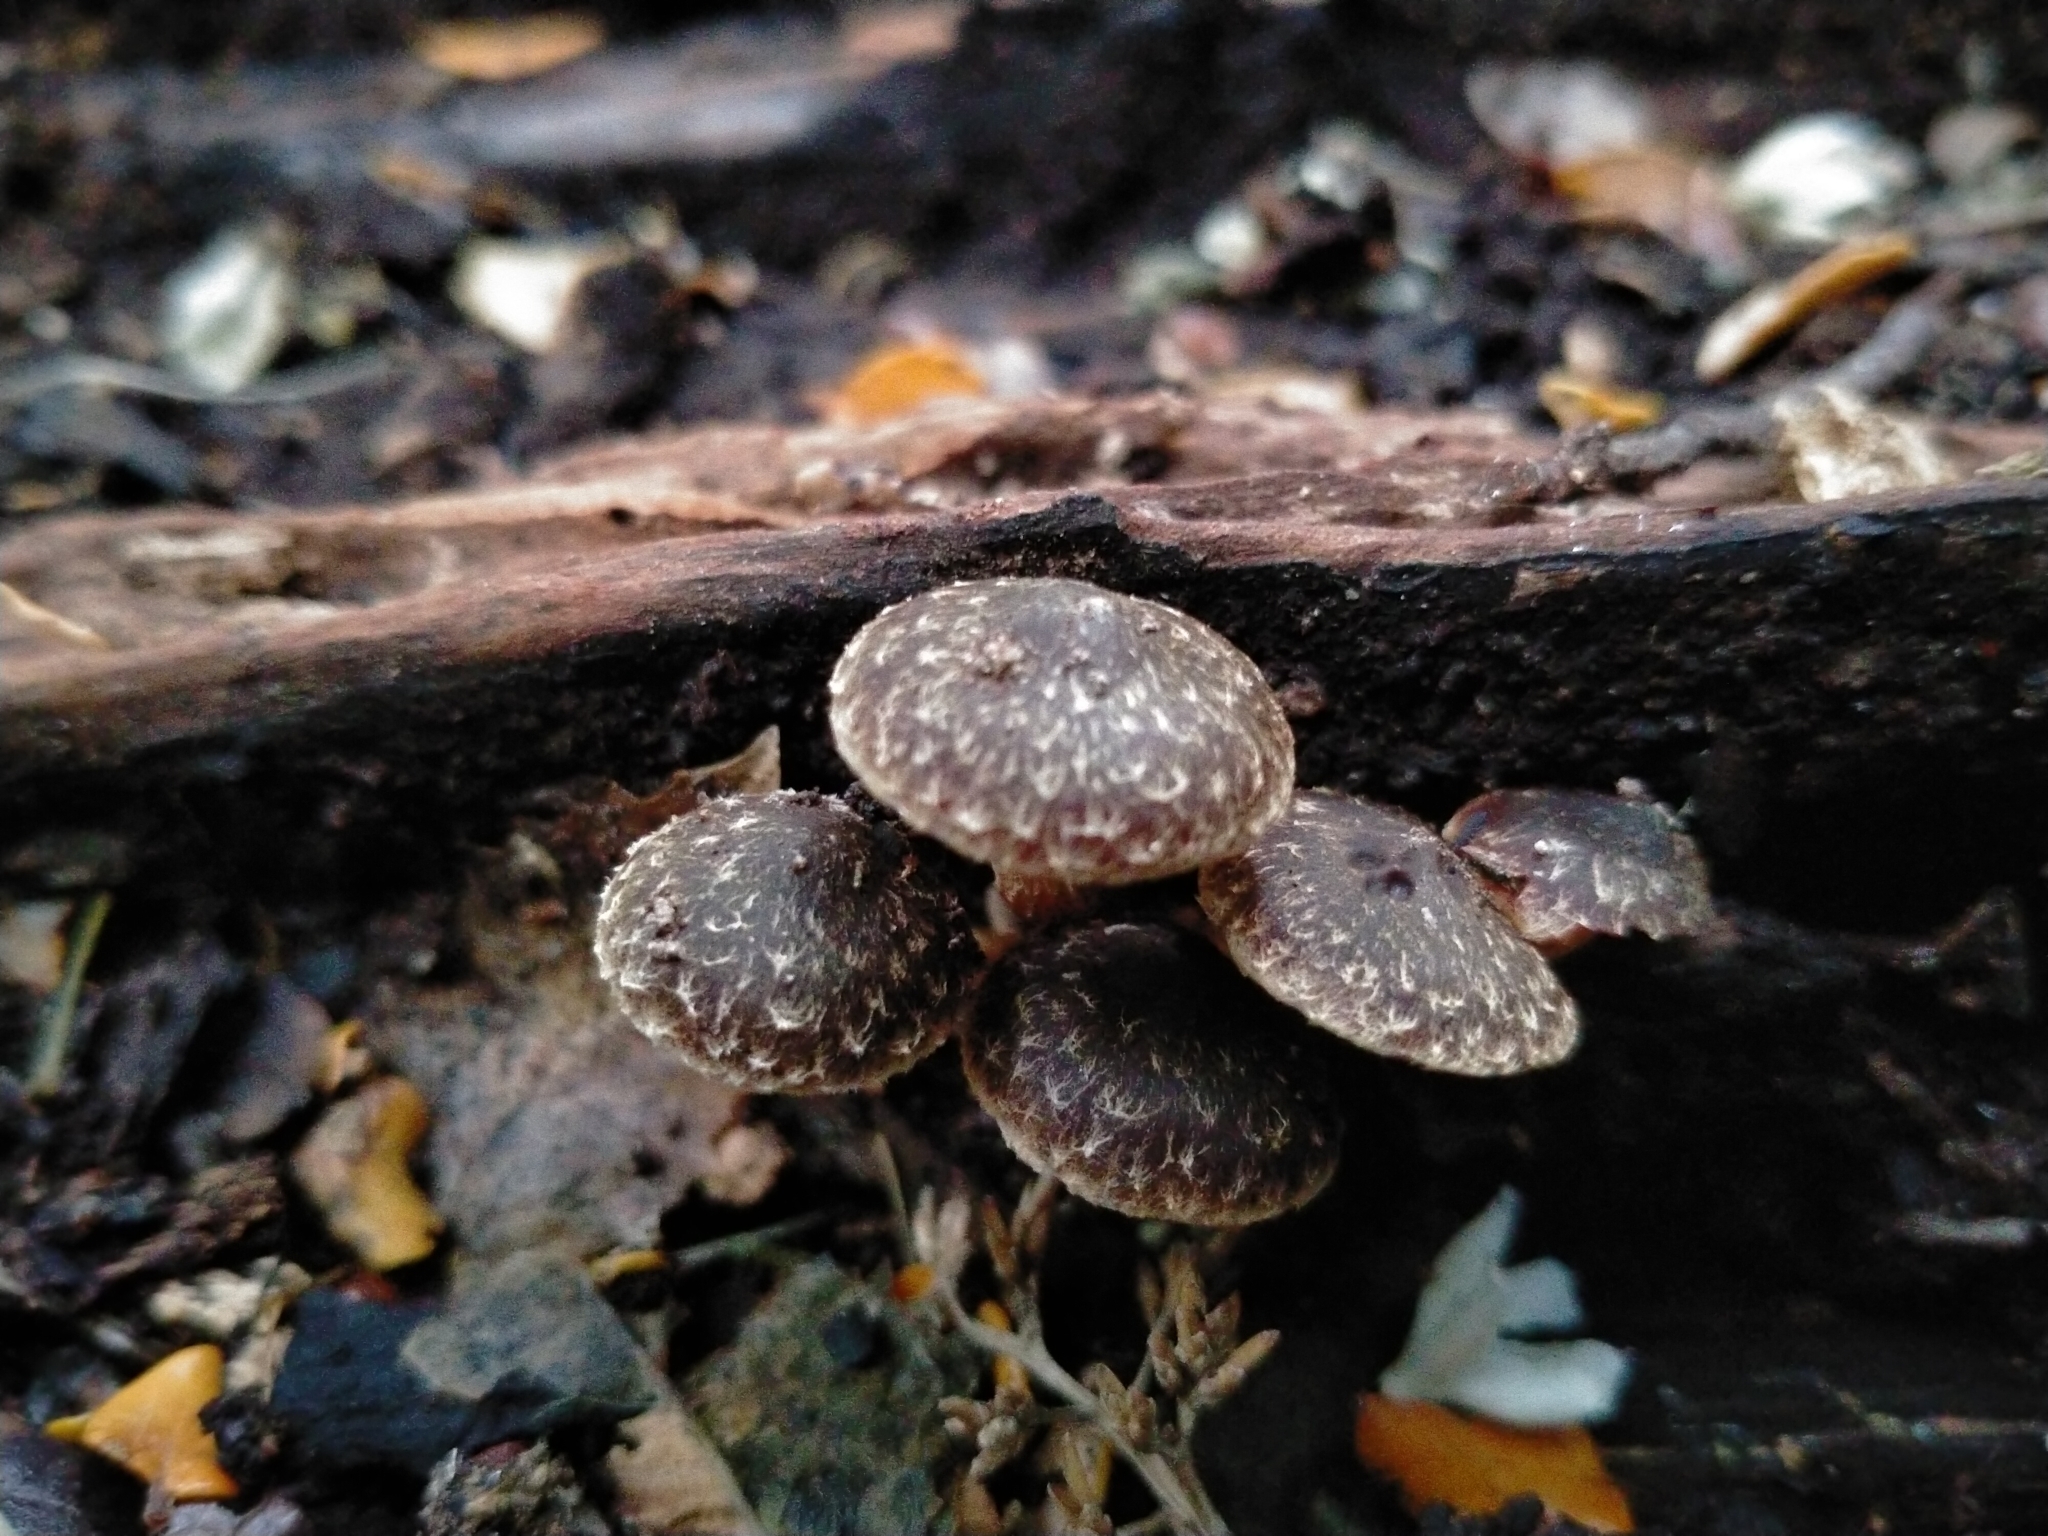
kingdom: Fungi
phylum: Basidiomycota
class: Agaricomycetes
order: Agaricales
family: Strophariaceae
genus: Hypholoma
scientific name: Hypholoma brunneum
